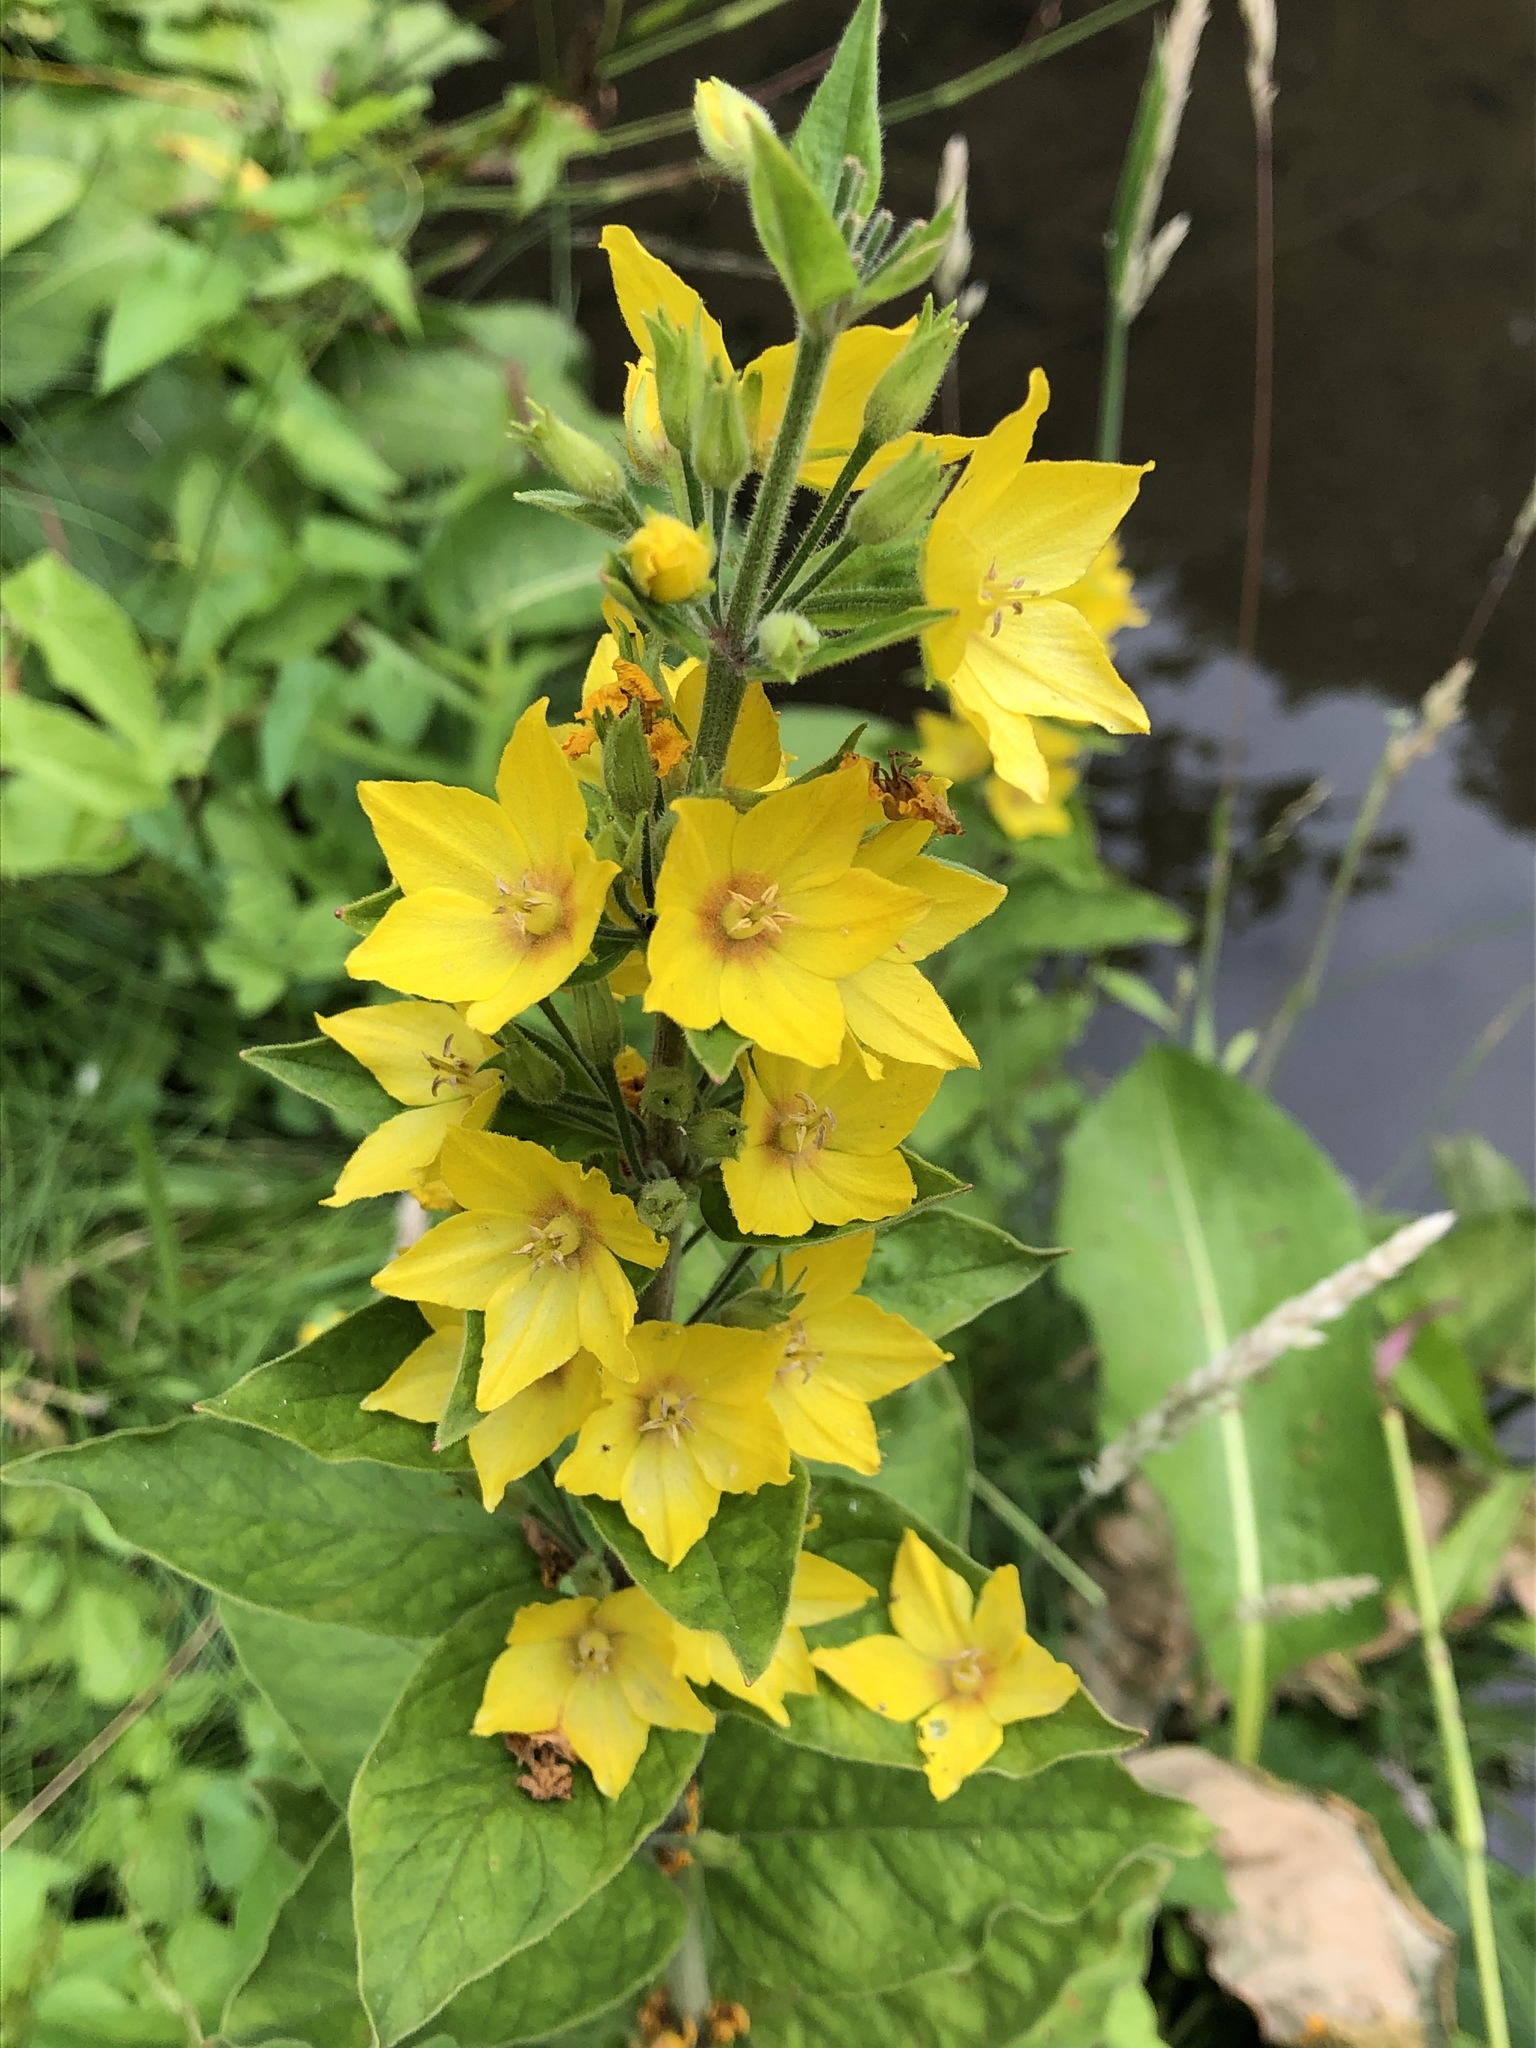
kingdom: Plantae
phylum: Tracheophyta
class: Magnoliopsida
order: Ericales
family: Primulaceae
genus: Lysimachia
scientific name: Lysimachia punctata
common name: Dotted loosestrife
